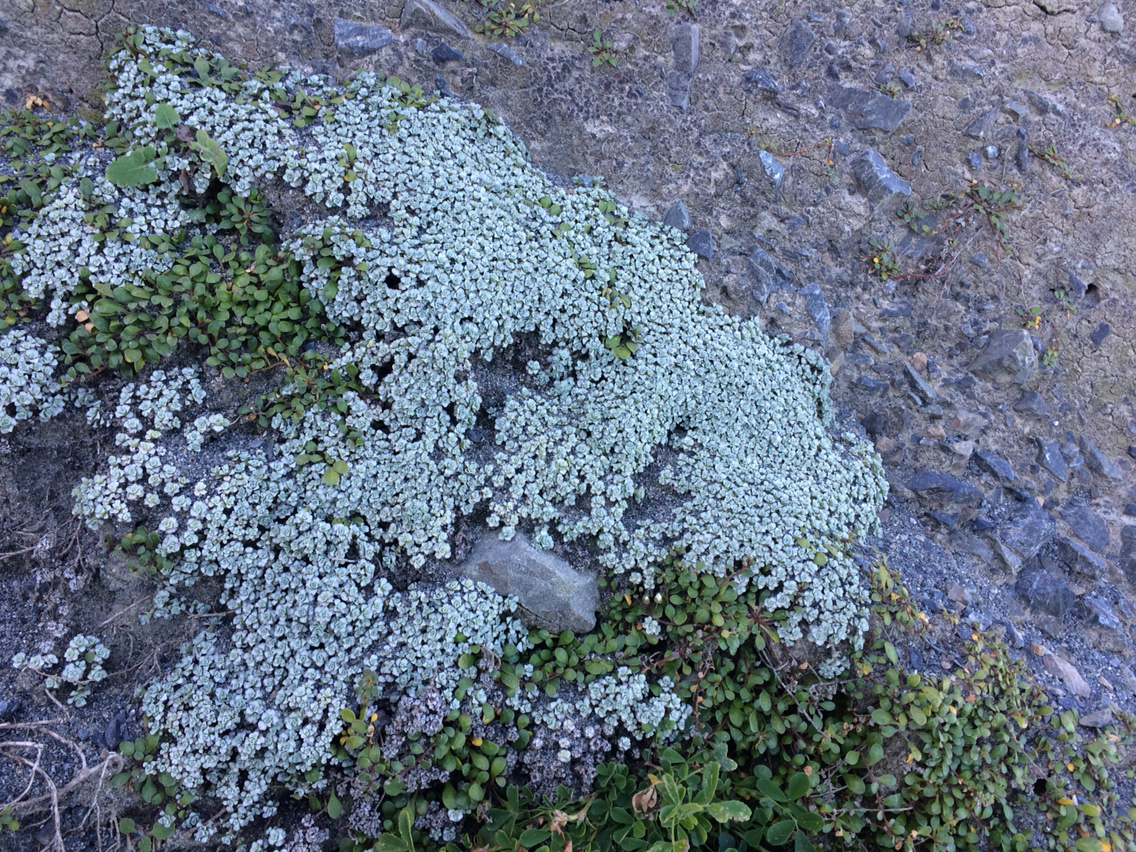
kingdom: Plantae
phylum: Tracheophyta
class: Magnoliopsida
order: Asterales
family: Asteraceae
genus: Raoulia
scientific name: Raoulia hookeri
